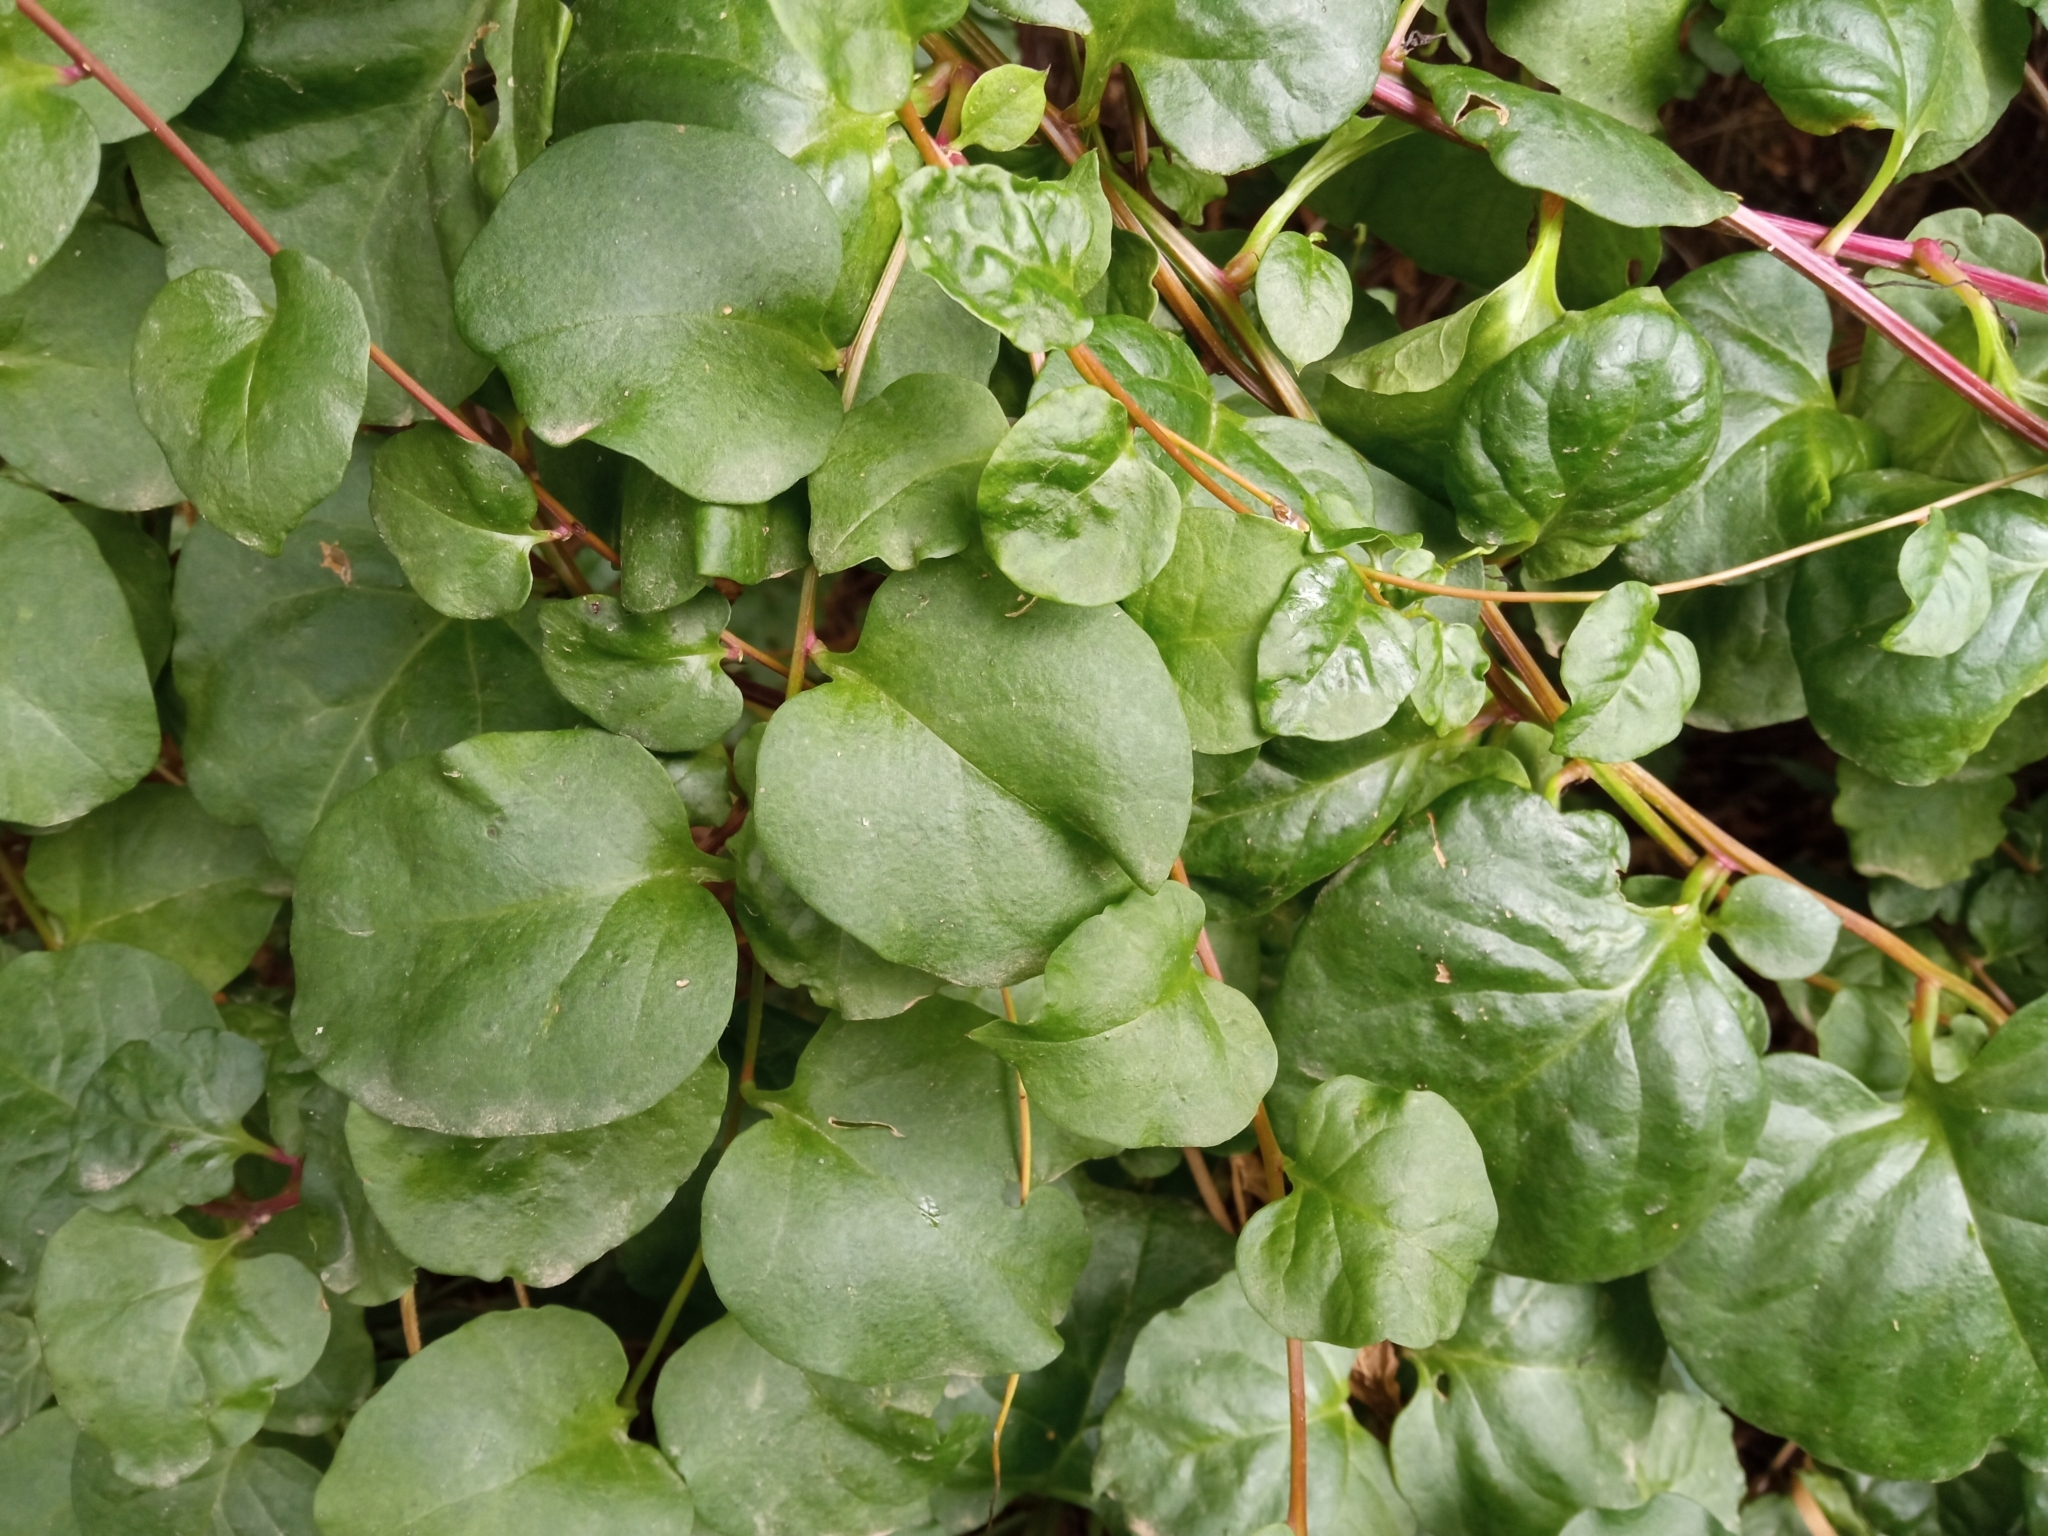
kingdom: Plantae
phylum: Tracheophyta
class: Magnoliopsida
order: Caryophyllales
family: Basellaceae
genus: Anredera
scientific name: Anredera cordifolia
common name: Heartleaf madeiravine
